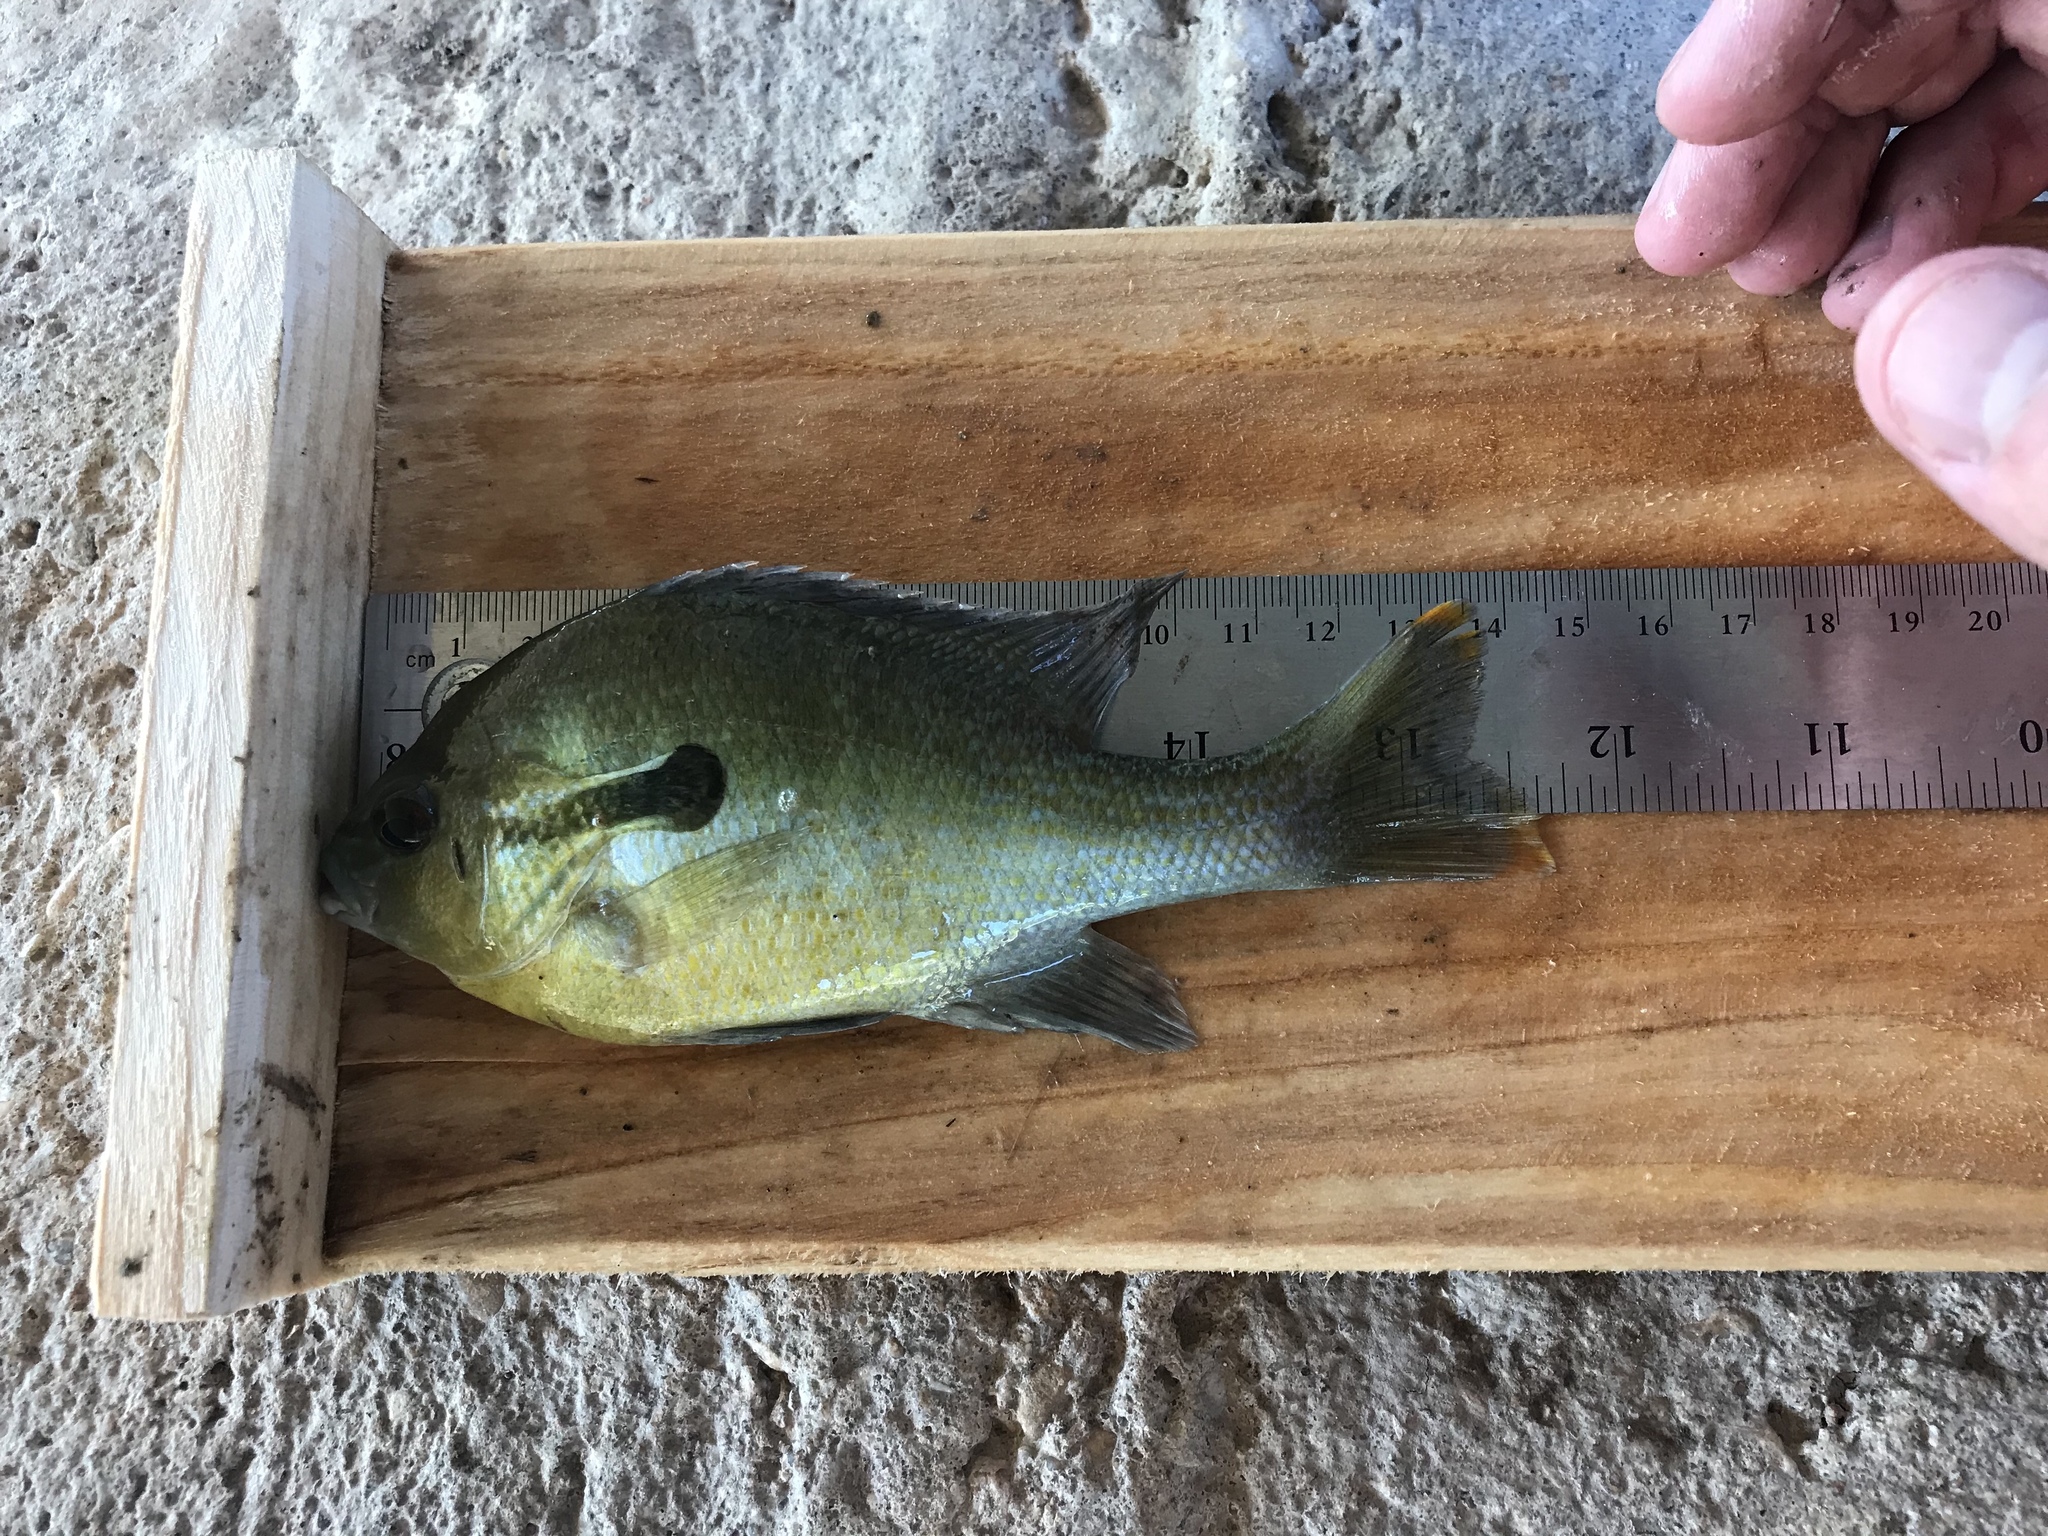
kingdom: Animalia
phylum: Chordata
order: Perciformes
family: Centrarchidae
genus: Lepomis
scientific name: Lepomis auritus
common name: Redbreast sunfish
